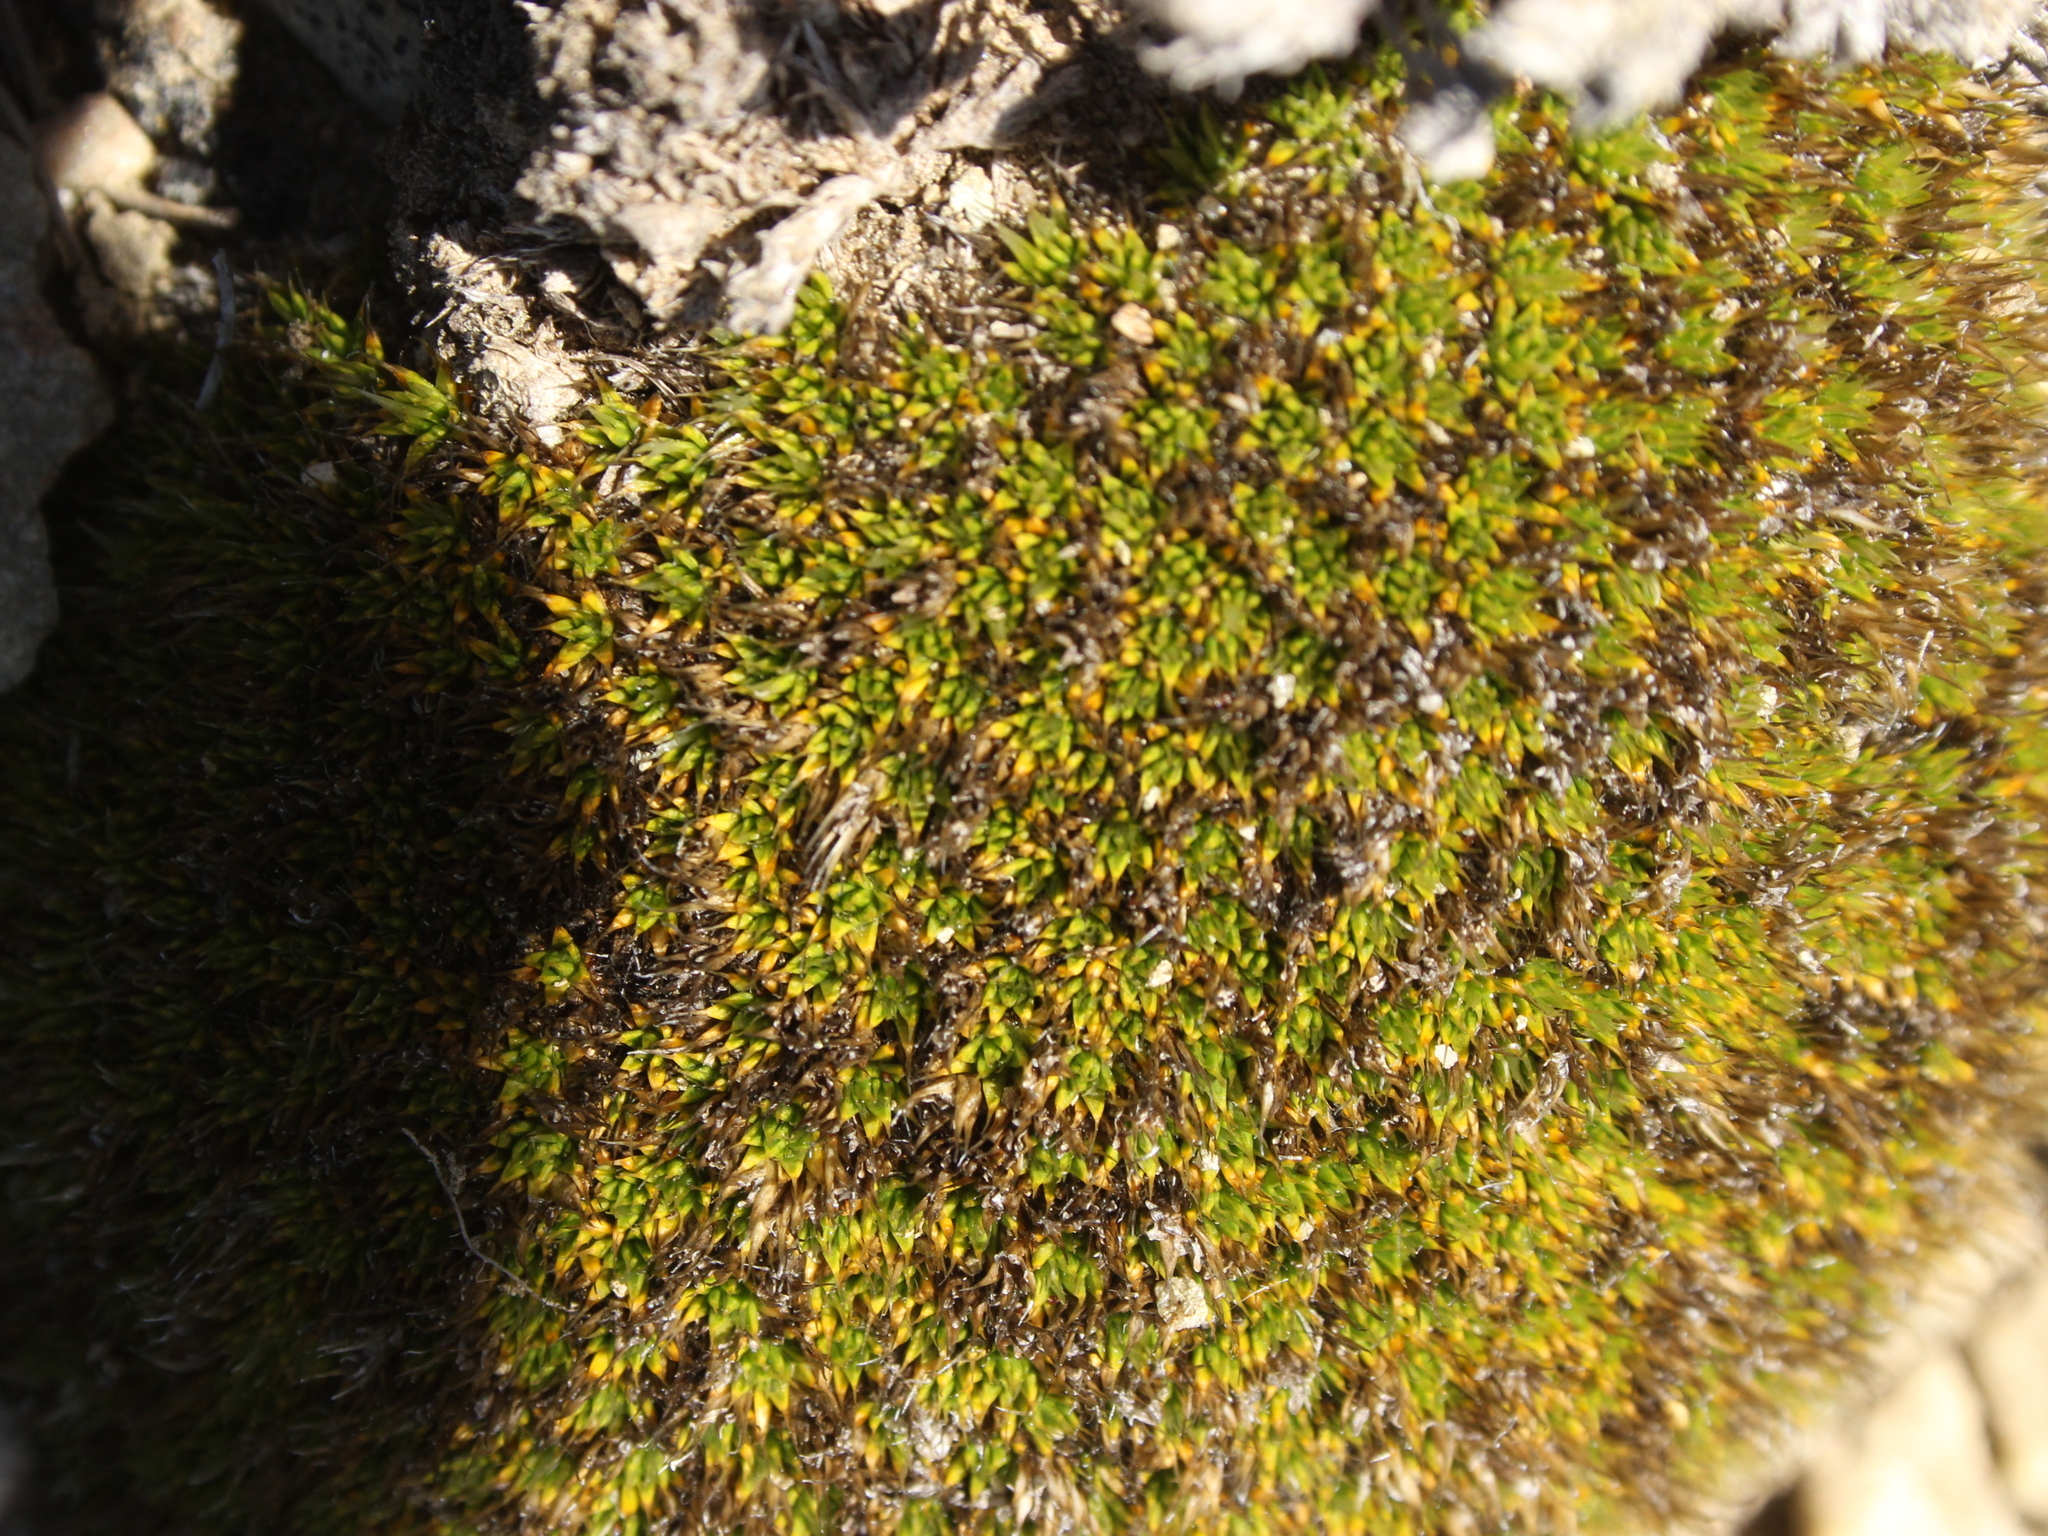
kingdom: Plantae
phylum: Tracheophyta
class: Magnoliopsida
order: Caryophyllales
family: Caryophyllaceae
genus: Colobanthus
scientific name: Colobanthus buchananii
